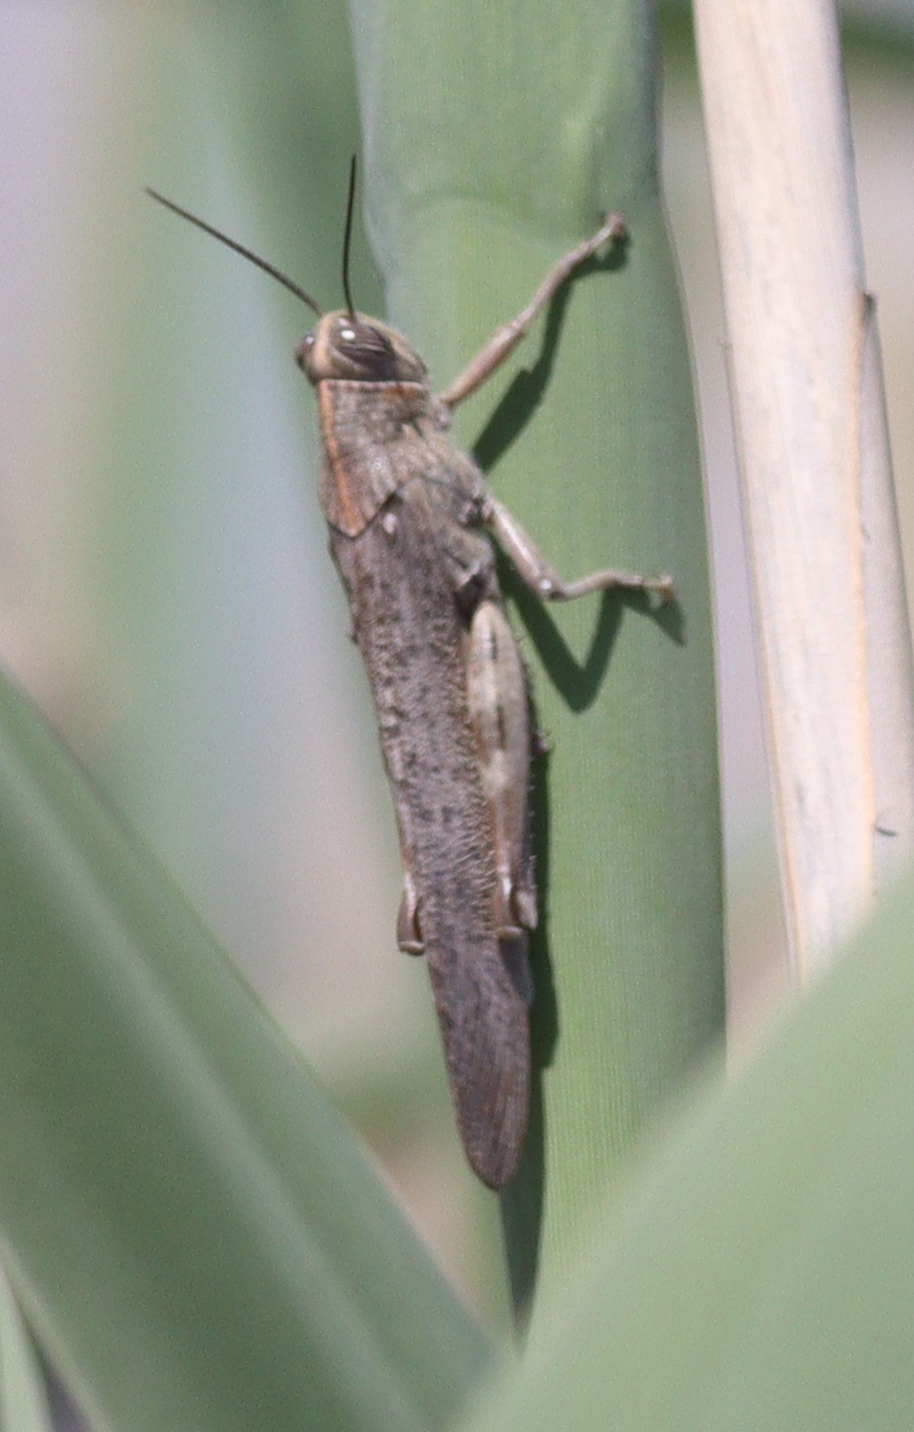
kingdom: Animalia
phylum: Arthropoda
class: Insecta
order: Orthoptera
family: Acrididae
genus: Anacridium
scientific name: Anacridium aegyptium
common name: Egyptian grasshopper
